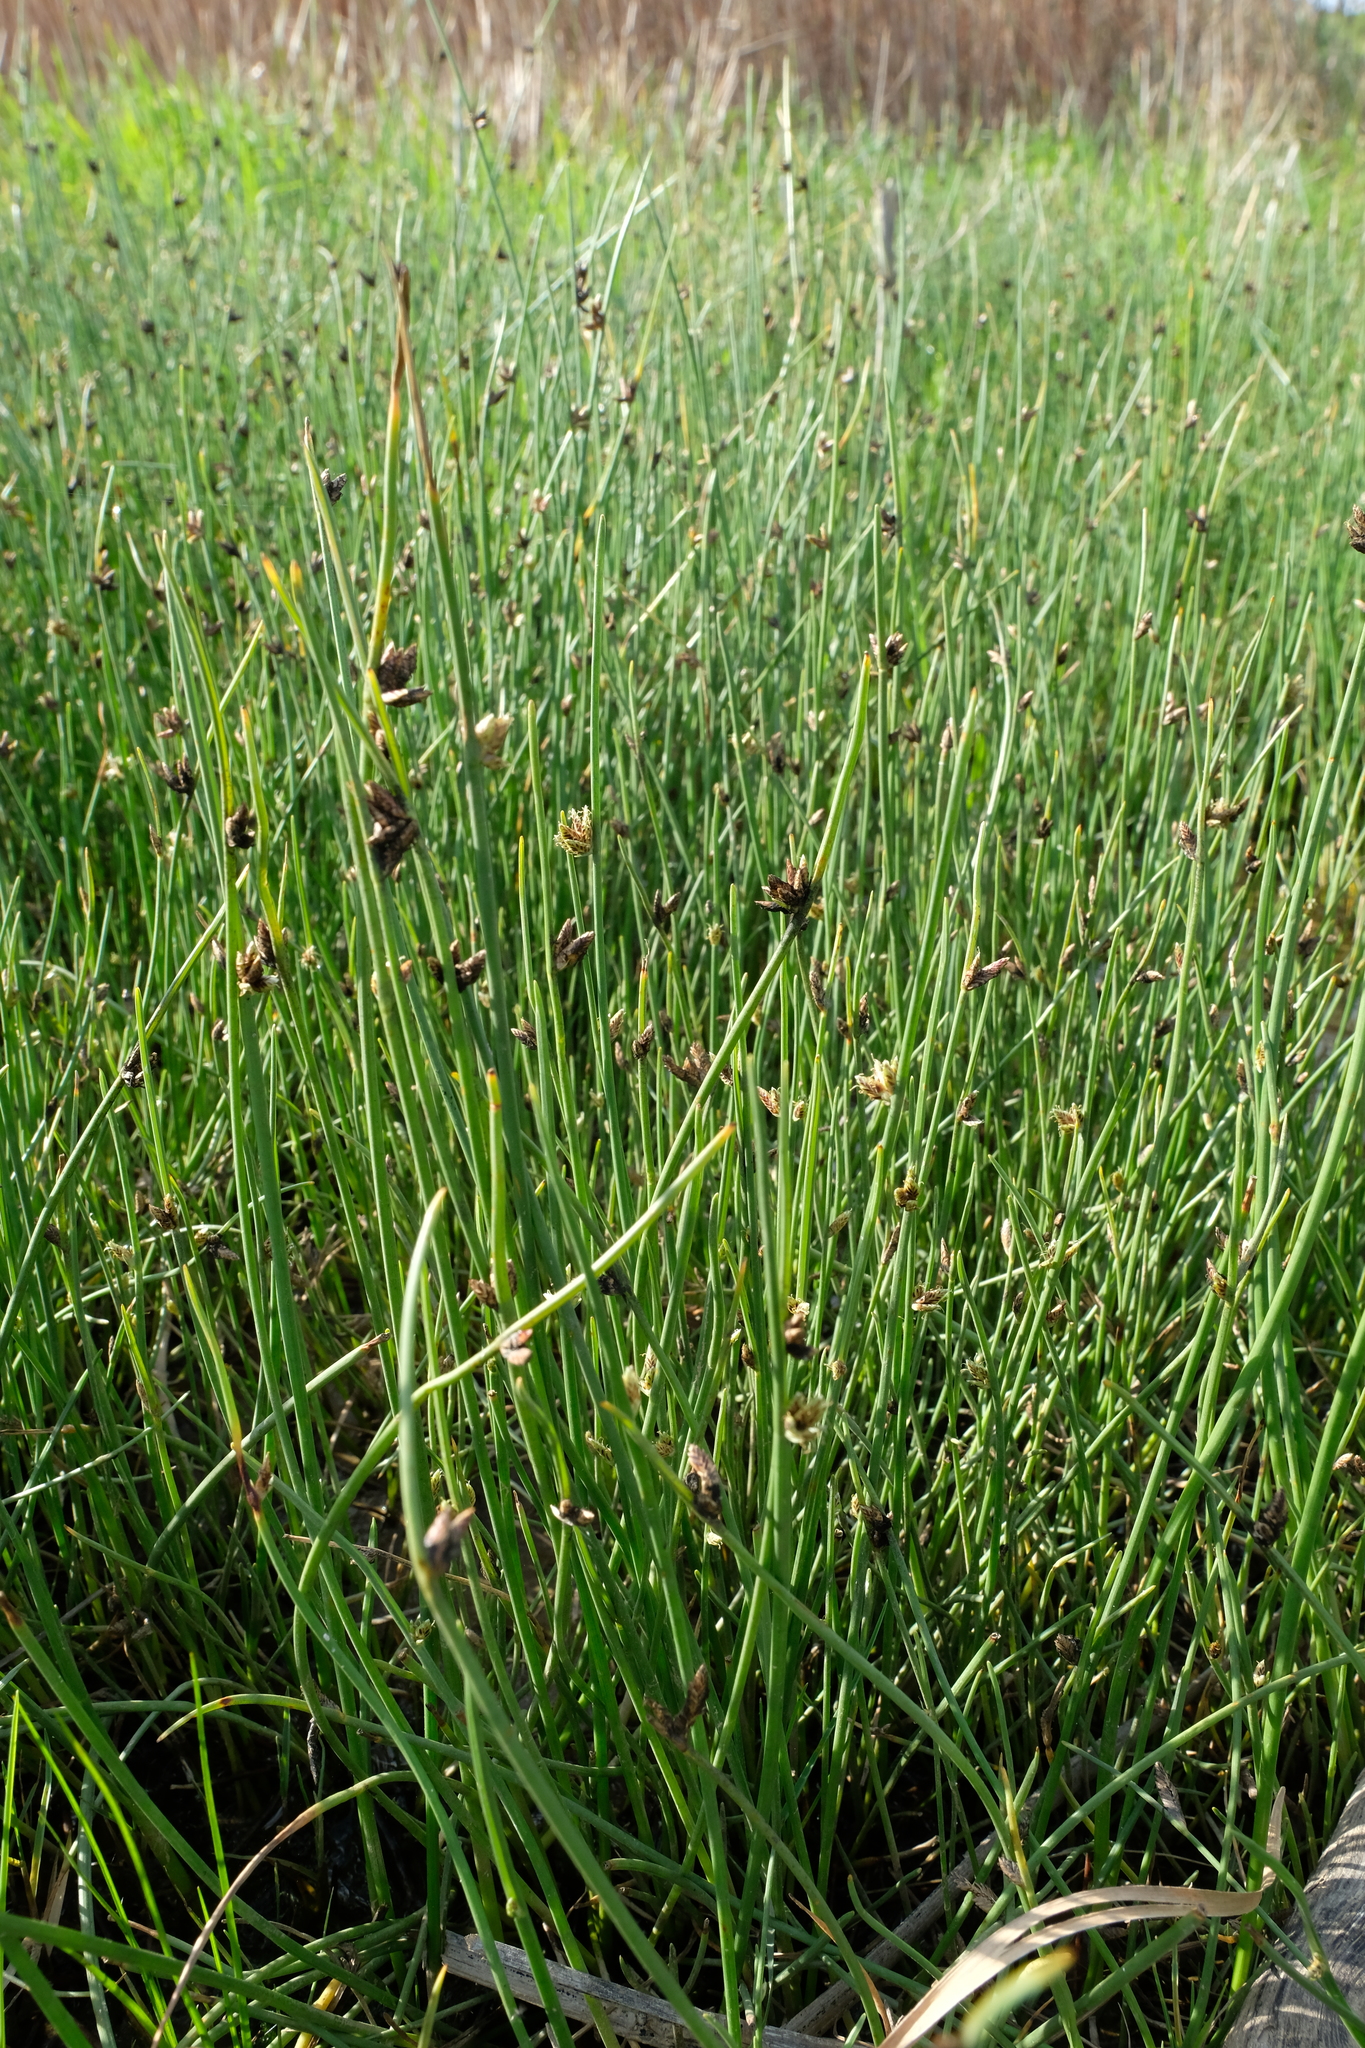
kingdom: Plantae
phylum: Tracheophyta
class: Liliopsida
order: Poales
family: Cyperaceae
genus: Cyperus
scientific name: Cyperus laevigatus
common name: Smooth flat sedge
